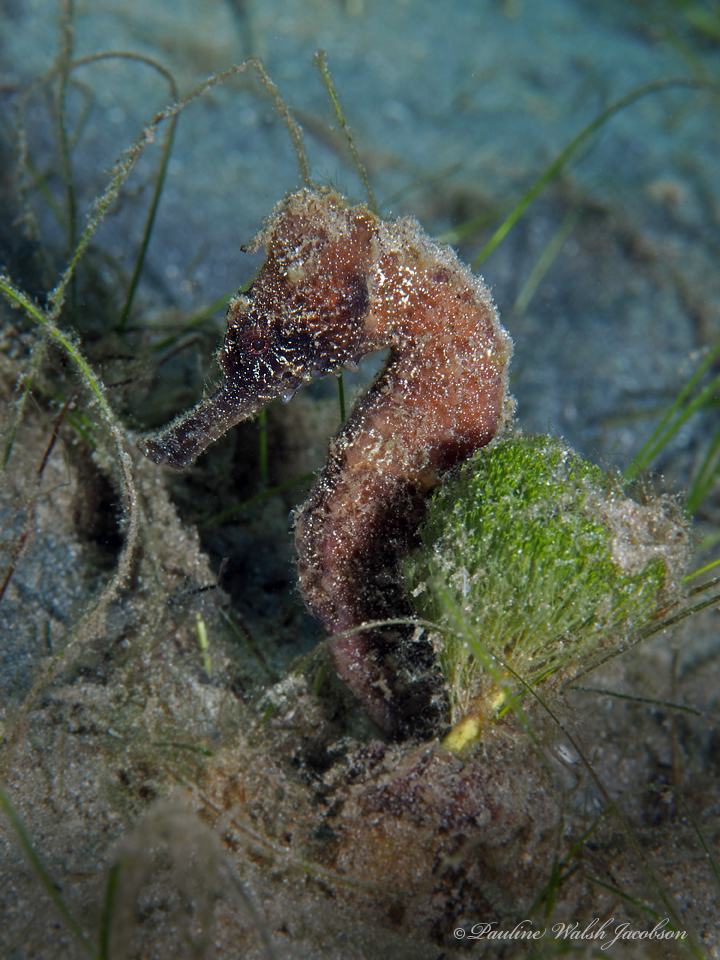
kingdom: Animalia
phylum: Chordata
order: Syngnathiformes
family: Syngnathidae
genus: Hippocampus
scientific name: Hippocampus reidi
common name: Slender seahorse
